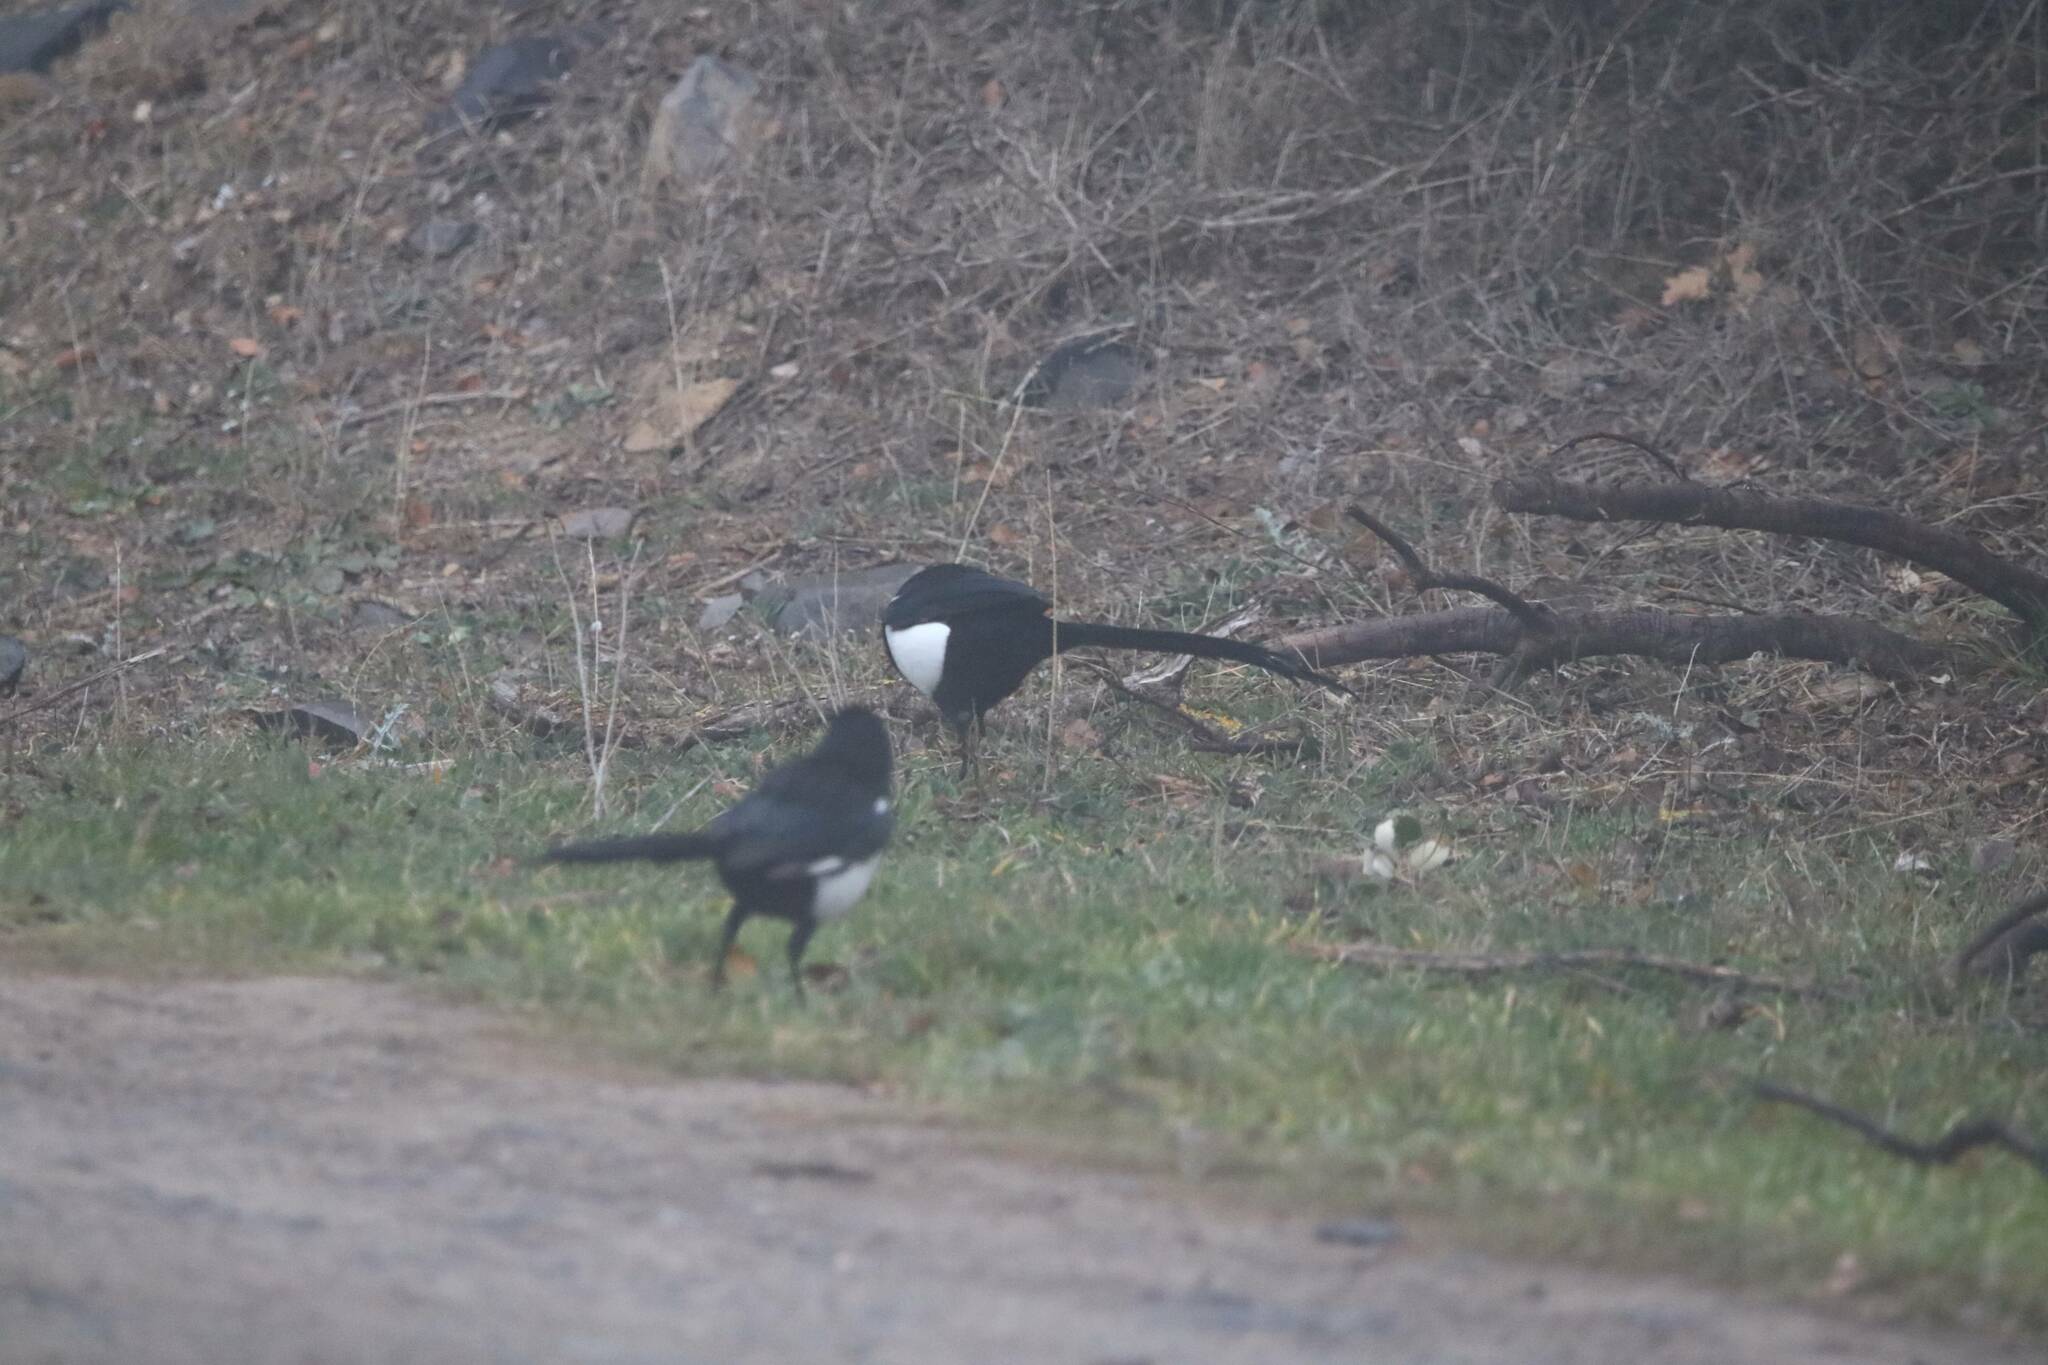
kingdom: Animalia
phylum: Chordata
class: Aves
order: Passeriformes
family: Corvidae
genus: Pica
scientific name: Pica mauritanica
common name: Maghreb magpie
